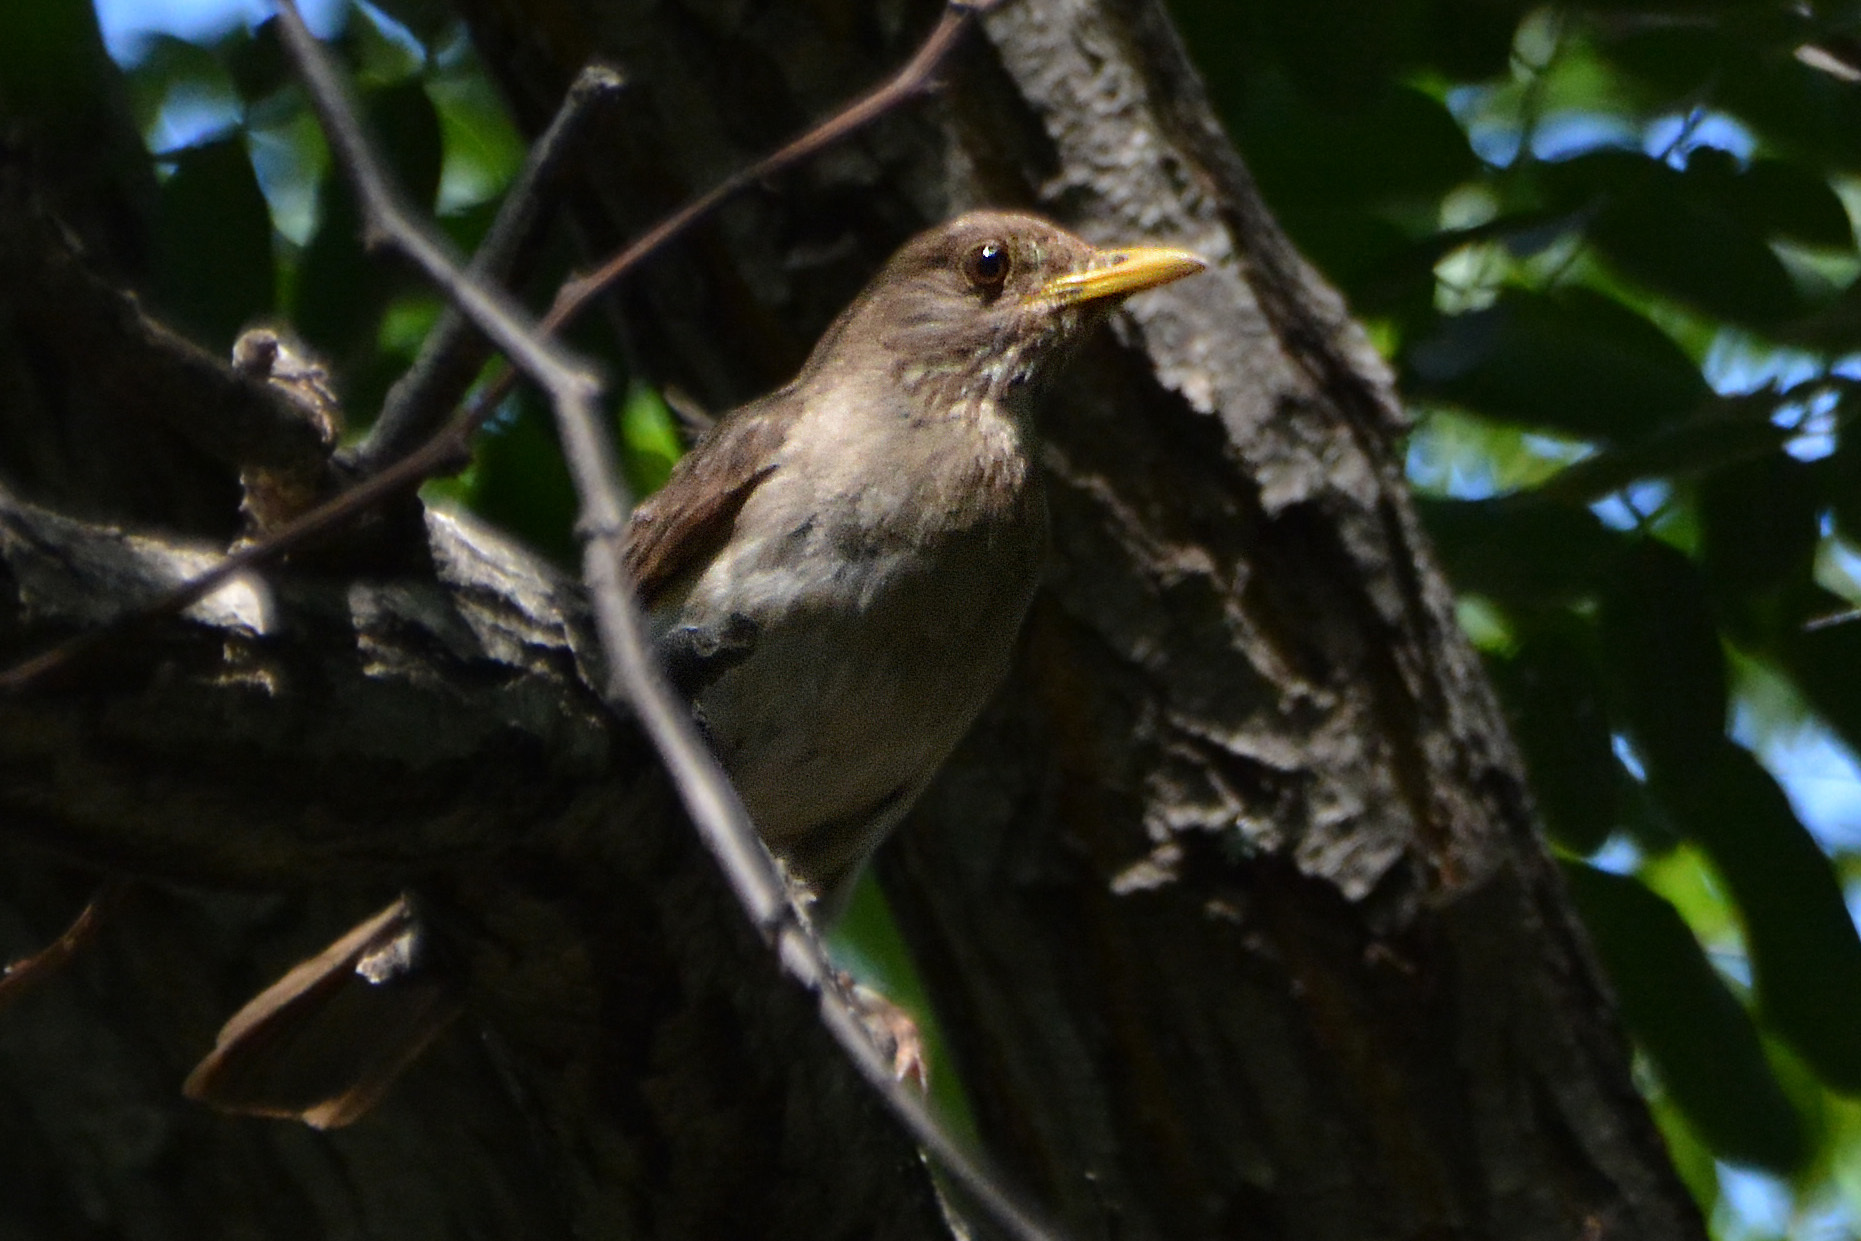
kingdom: Animalia
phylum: Chordata
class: Aves
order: Passeriformes
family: Turdidae
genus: Turdus
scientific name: Turdus amaurochalinus
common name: Creamy-bellied thrush
